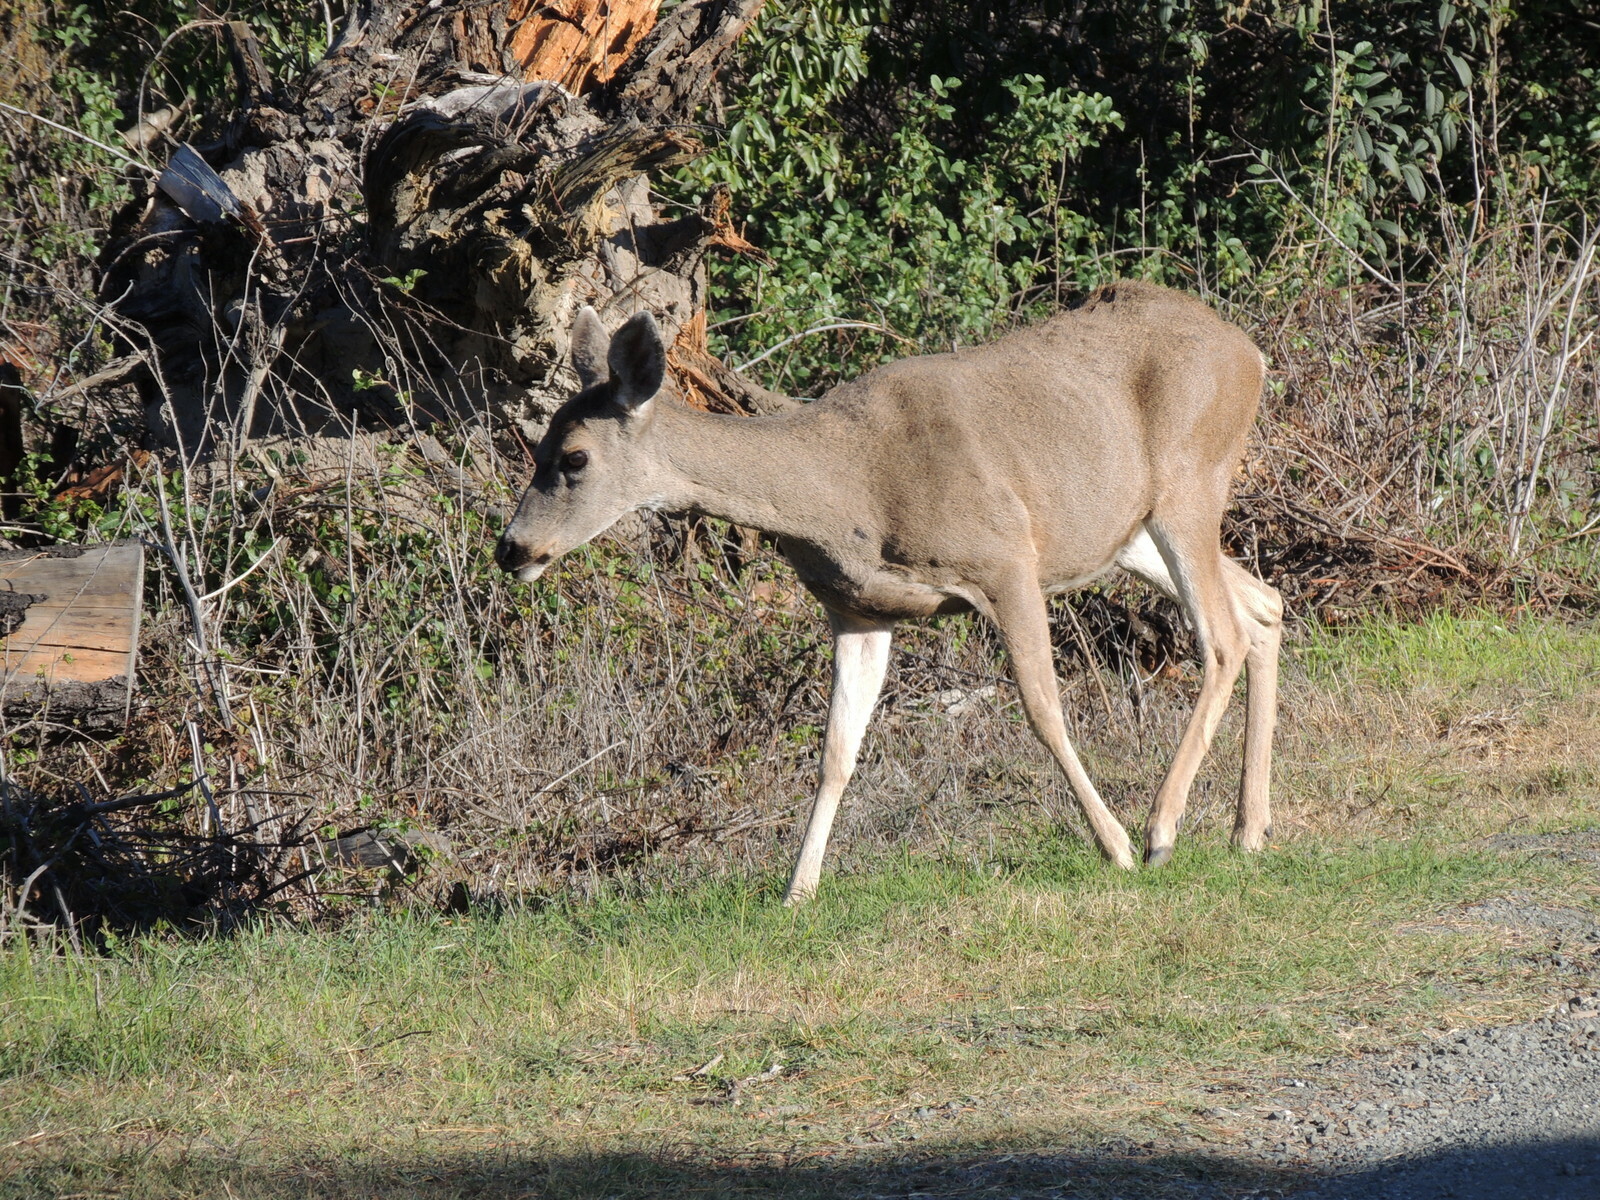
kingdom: Animalia
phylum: Chordata
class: Mammalia
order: Artiodactyla
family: Cervidae
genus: Odocoileus
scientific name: Odocoileus hemionus
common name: Mule deer
